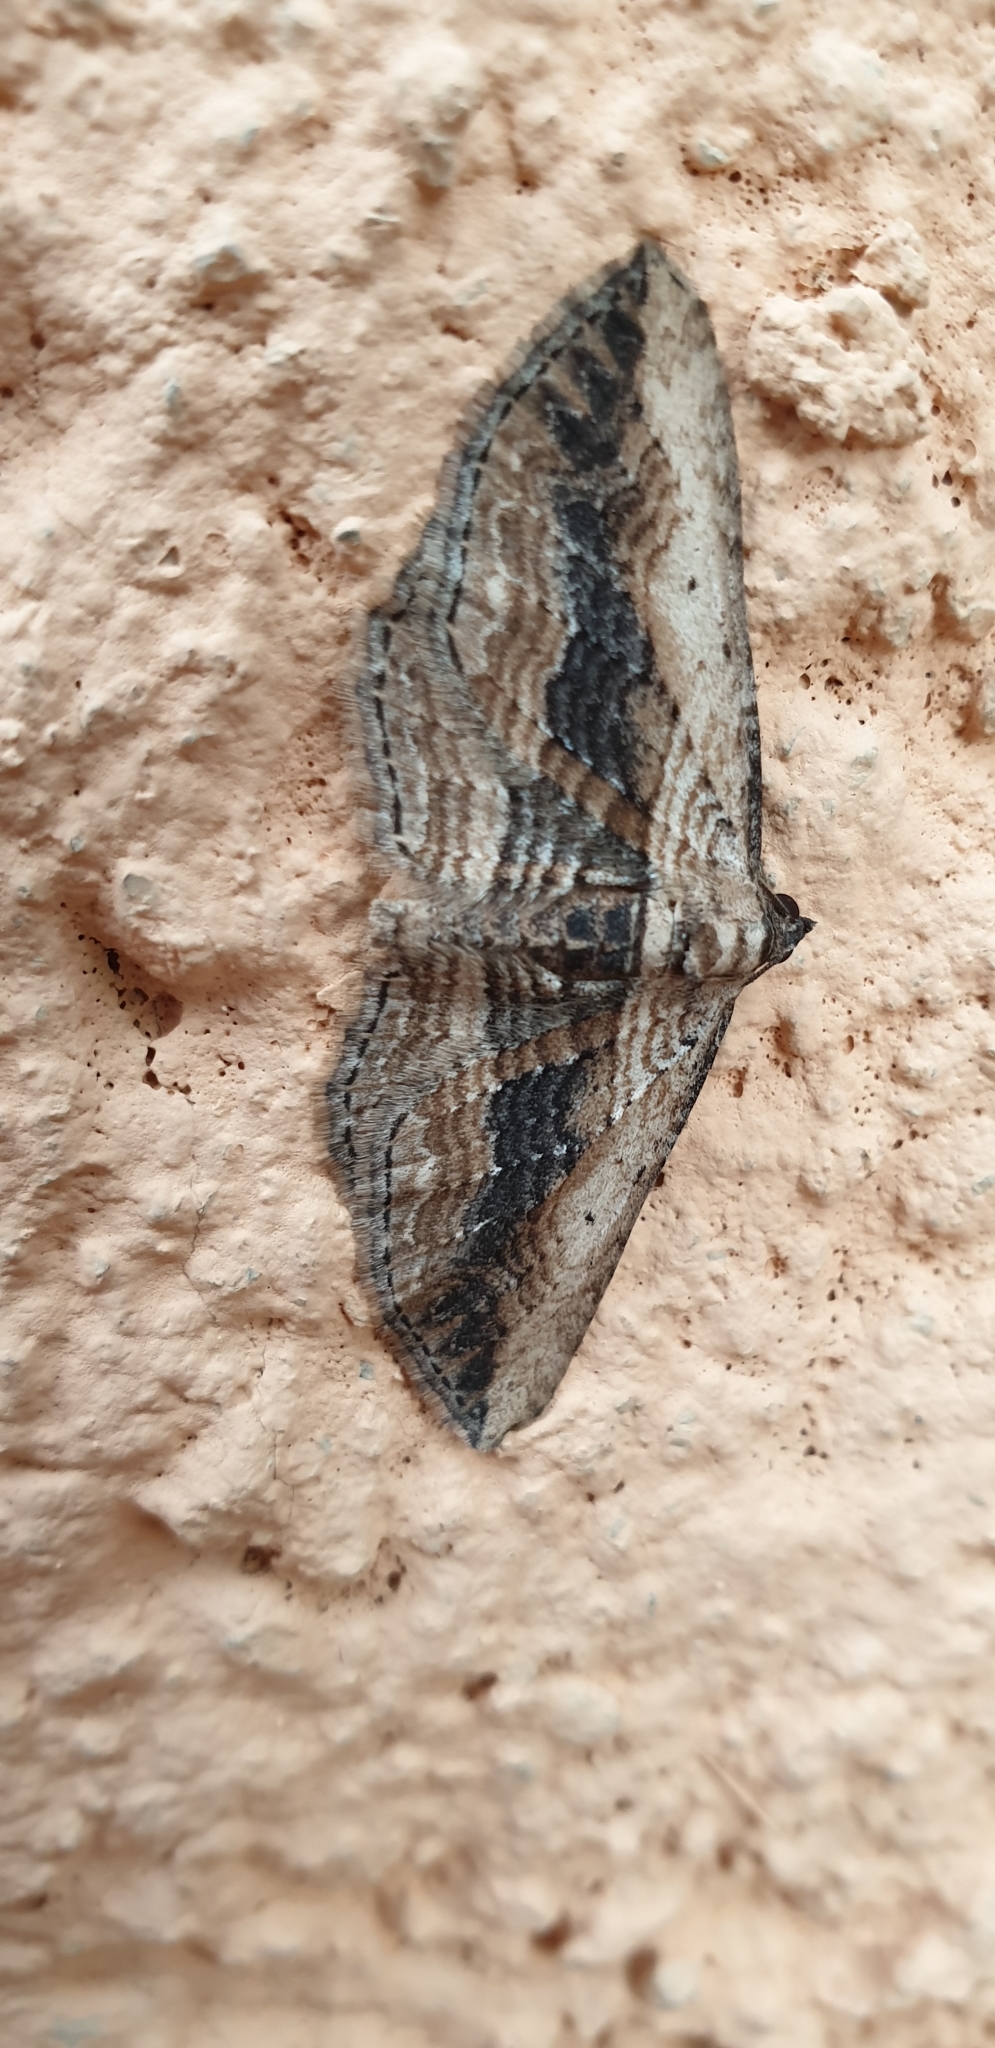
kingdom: Animalia
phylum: Arthropoda
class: Insecta
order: Lepidoptera
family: Geometridae
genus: Horisme
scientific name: Horisme vitalbata
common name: Small waved umber
